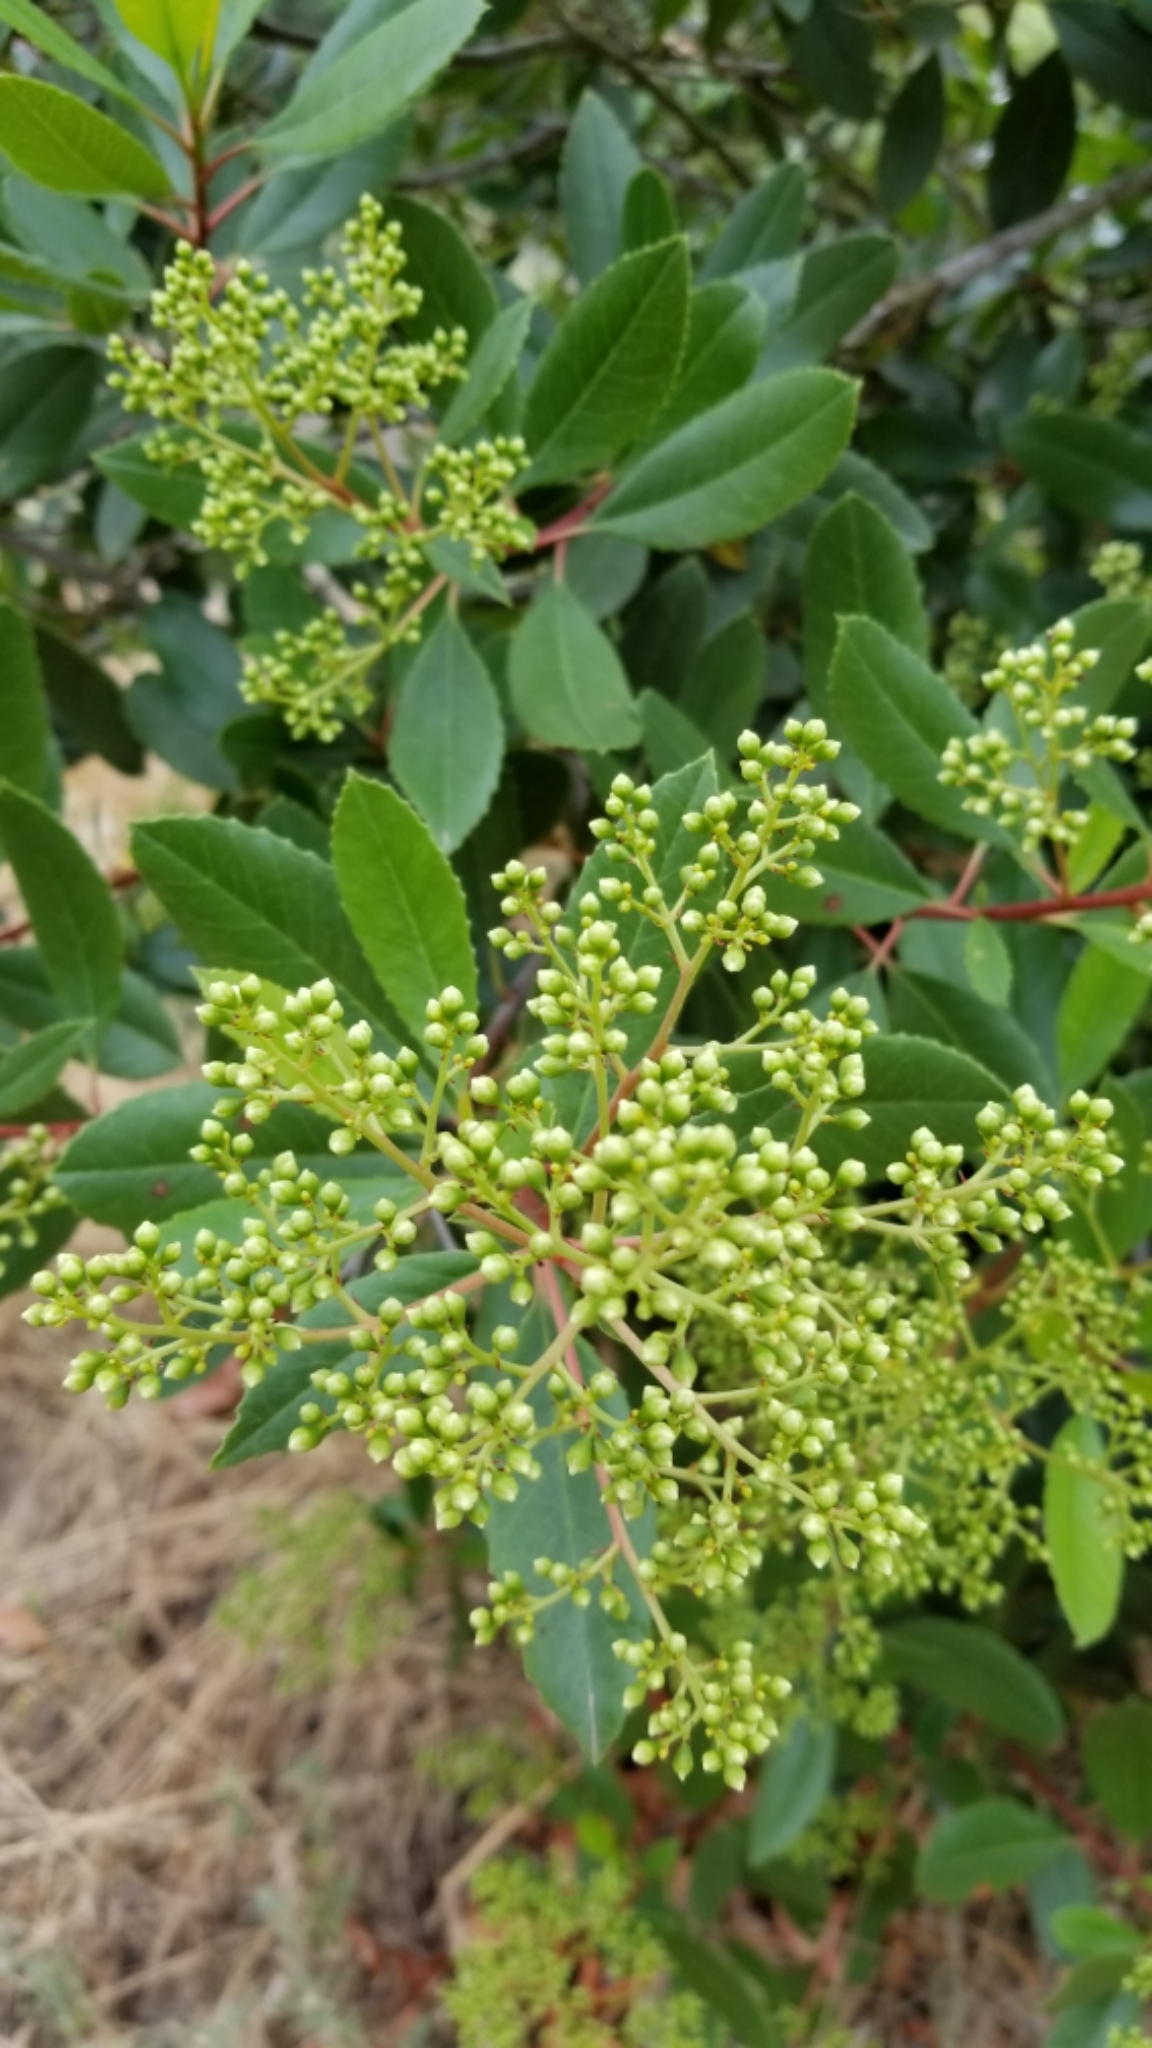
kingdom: Plantae
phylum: Tracheophyta
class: Magnoliopsida
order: Rosales
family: Rosaceae
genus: Heteromeles
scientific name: Heteromeles arbutifolia
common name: California-holly
